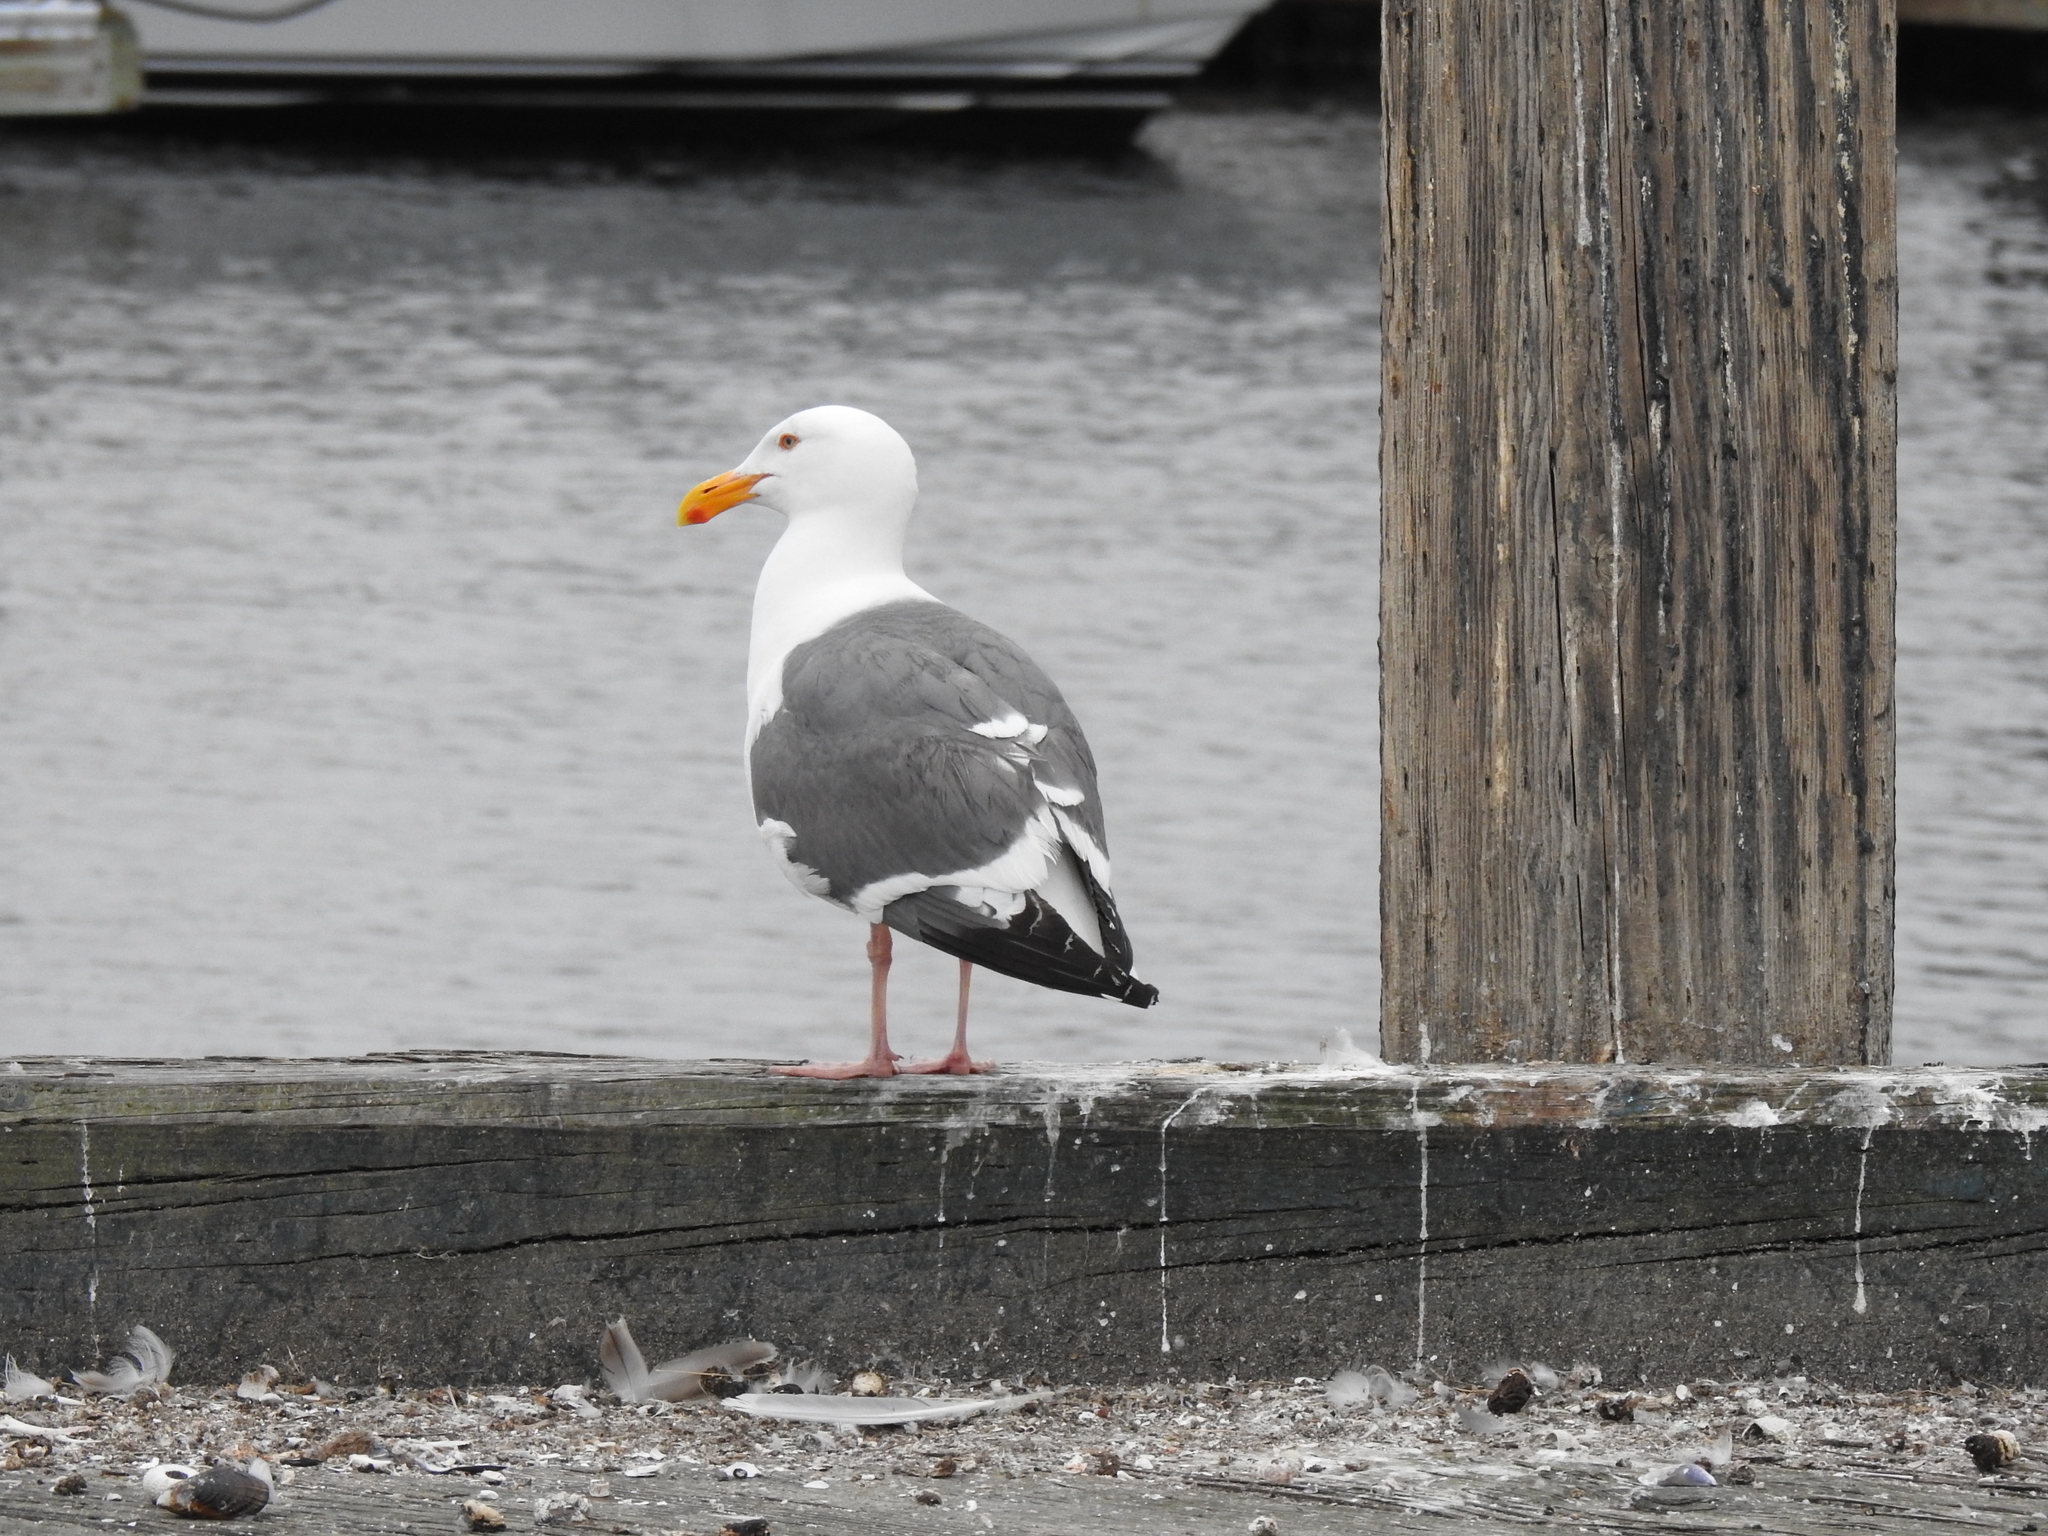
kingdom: Animalia
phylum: Chordata
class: Aves
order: Charadriiformes
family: Laridae
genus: Larus
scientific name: Larus occidentalis
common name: Western gull
